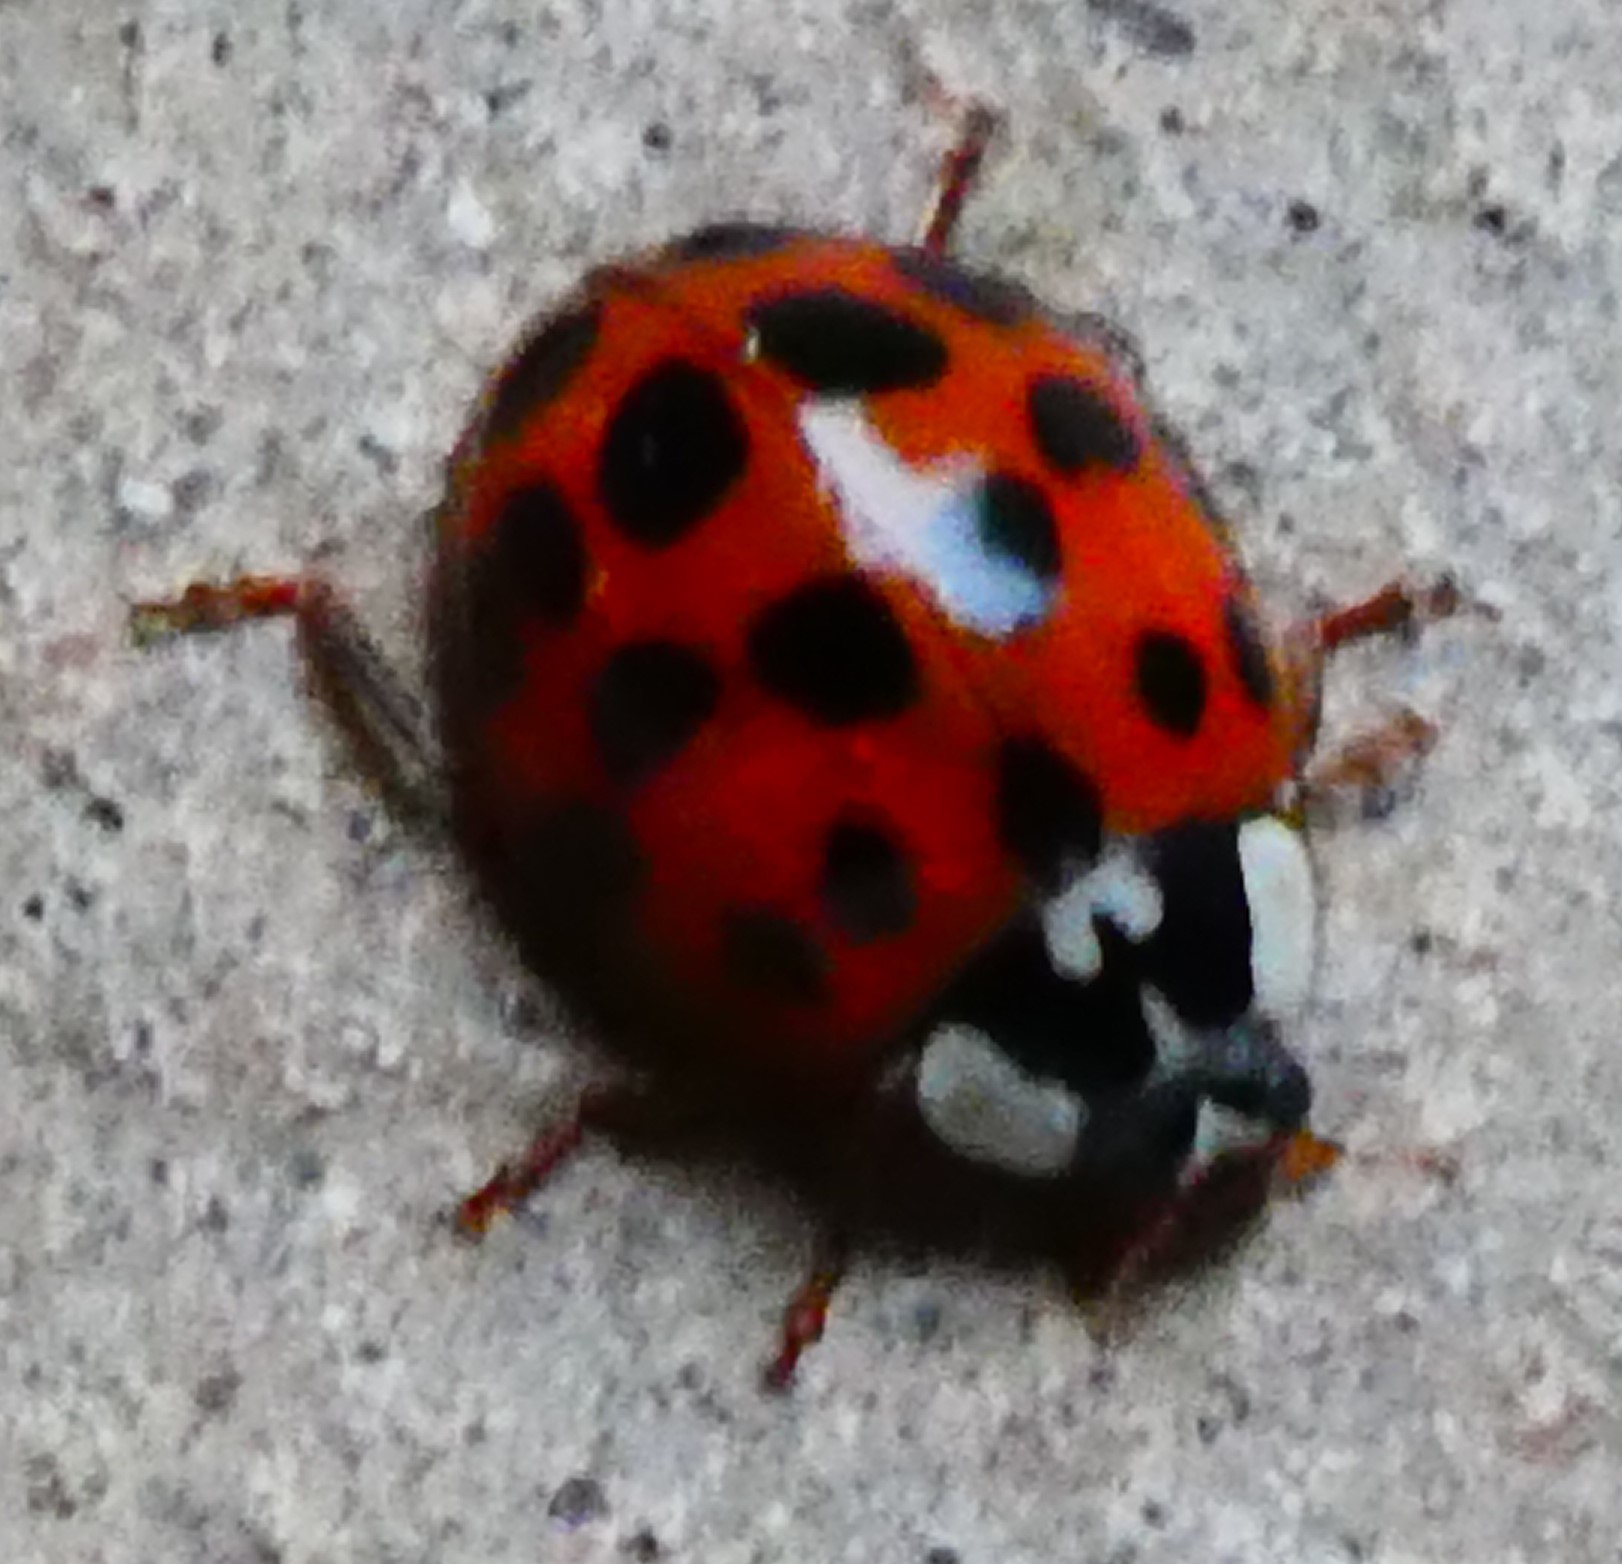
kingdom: Animalia
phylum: Arthropoda
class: Insecta
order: Coleoptera
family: Coccinellidae
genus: Harmonia
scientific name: Harmonia axyridis
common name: Harlequin ladybird
